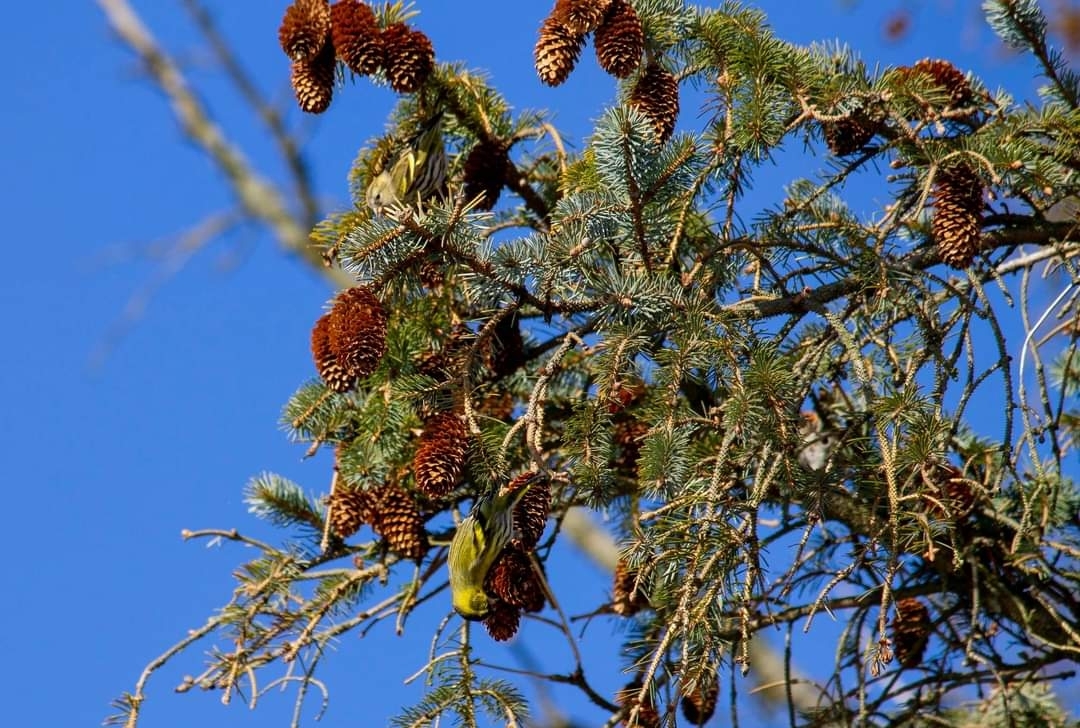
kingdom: Animalia
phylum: Chordata
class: Aves
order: Passeriformes
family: Fringillidae
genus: Spinus
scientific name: Spinus spinus
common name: Eurasian siskin
